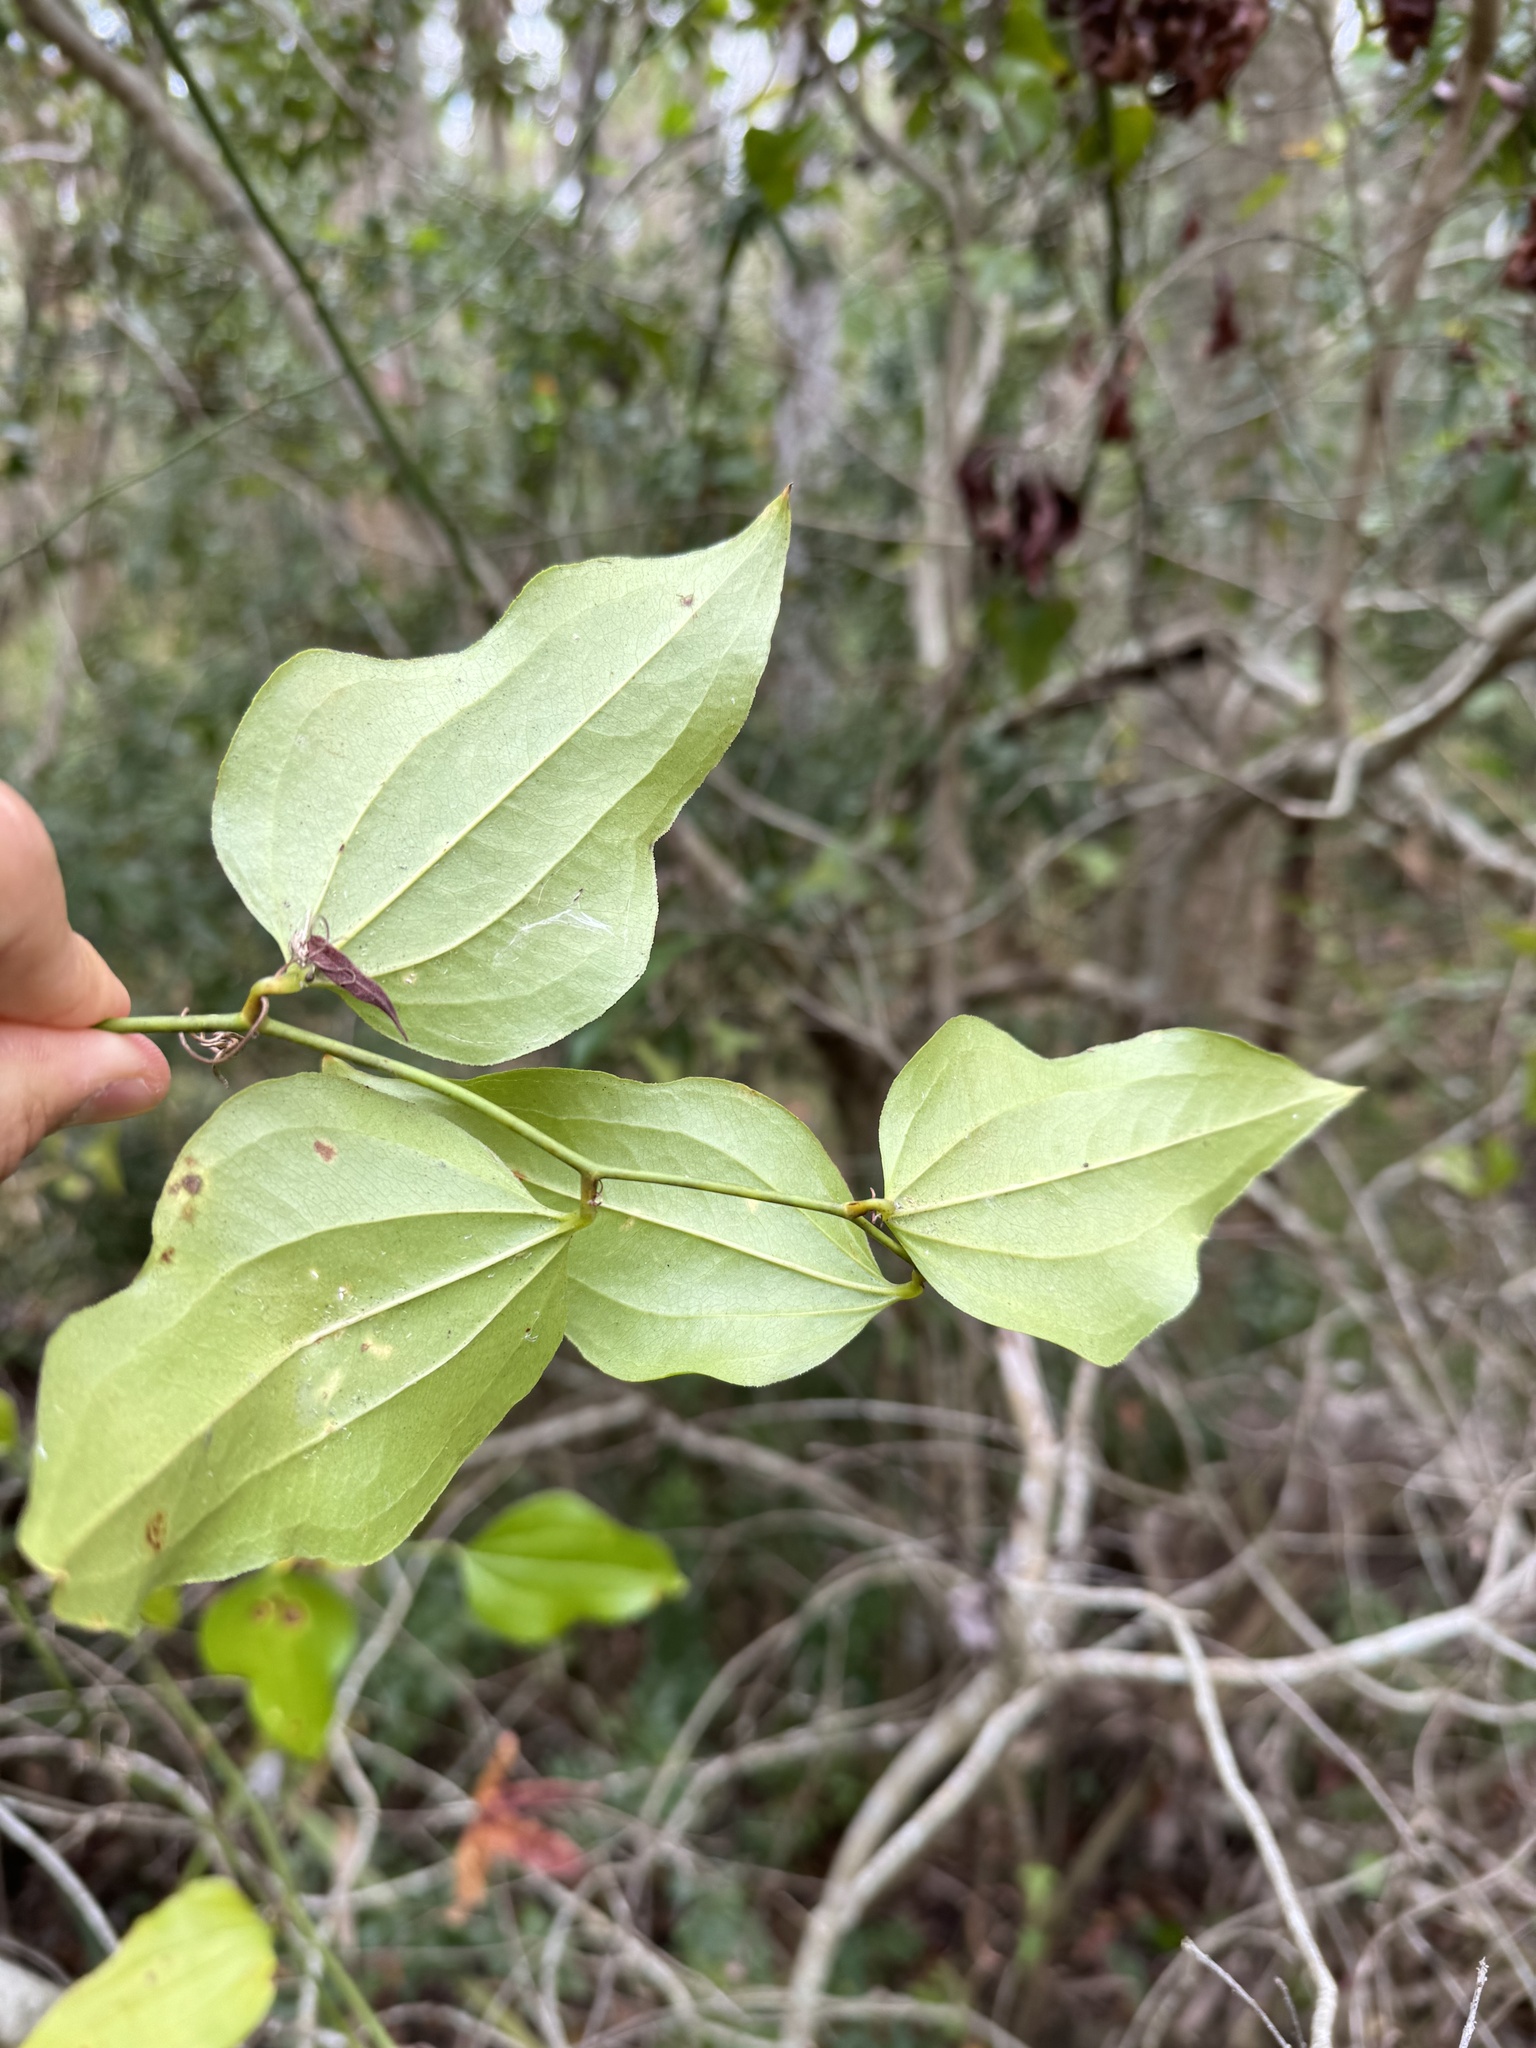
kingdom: Plantae
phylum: Tracheophyta
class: Liliopsida
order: Liliales
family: Smilacaceae
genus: Smilax
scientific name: Smilax tamnoides
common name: Hellfetter
